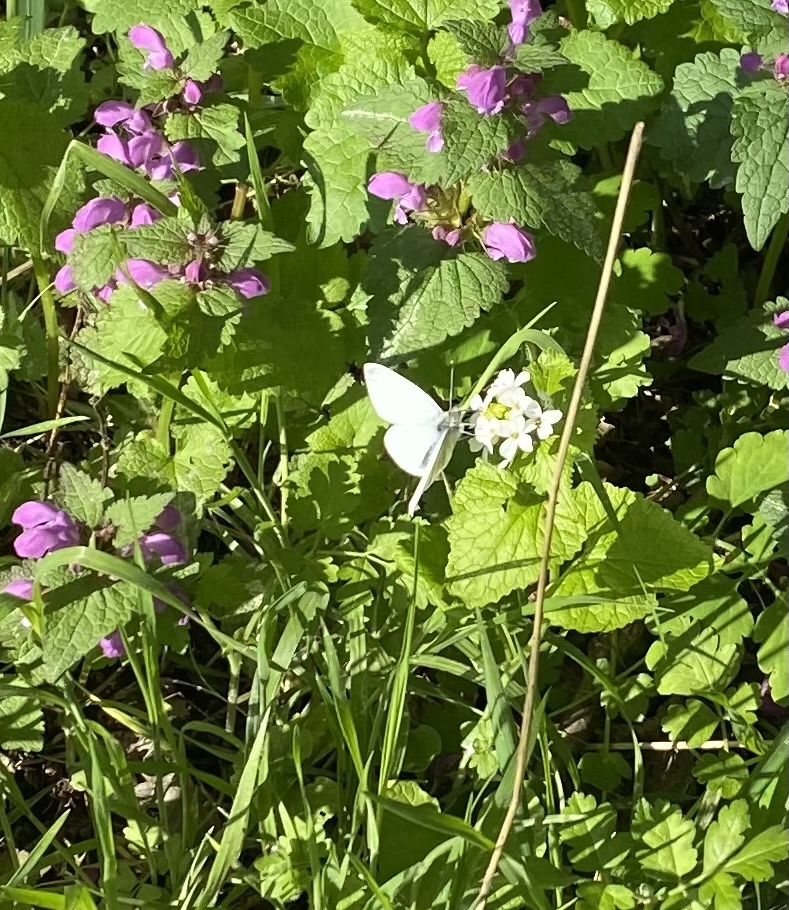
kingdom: Animalia
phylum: Arthropoda
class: Insecta
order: Lepidoptera
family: Pieridae
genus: Pieris
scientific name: Pieris napi
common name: Green-veined white
